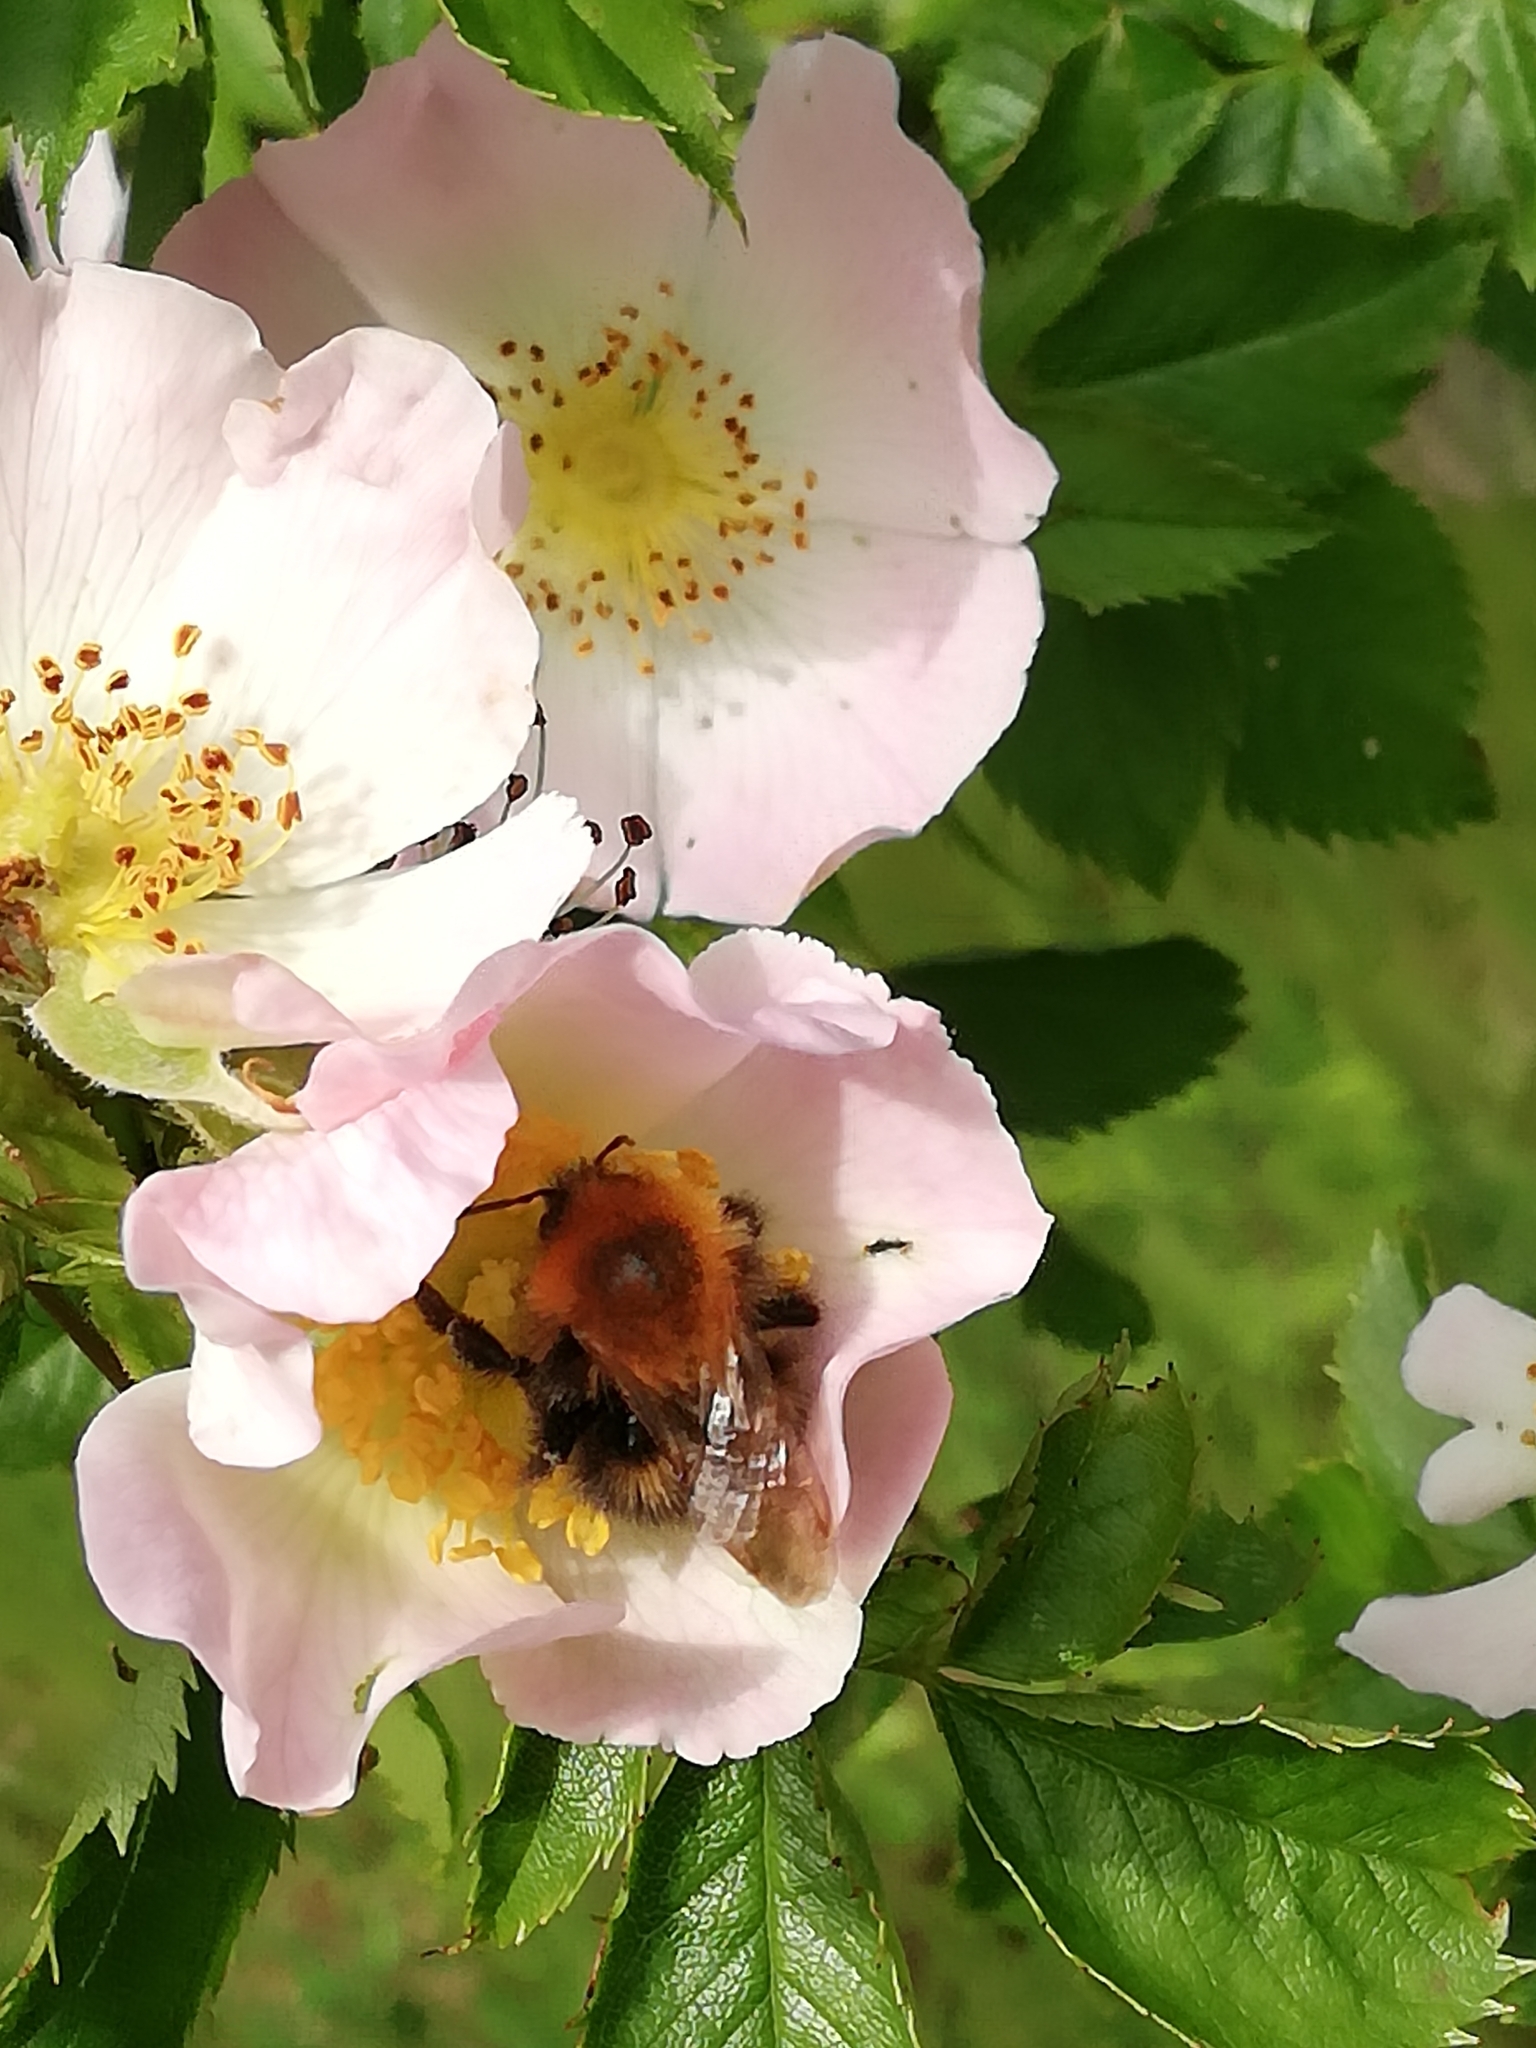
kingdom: Animalia
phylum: Arthropoda
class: Insecta
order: Hymenoptera
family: Apidae
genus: Bombus
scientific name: Bombus hypnorum
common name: New garden bumblebee
